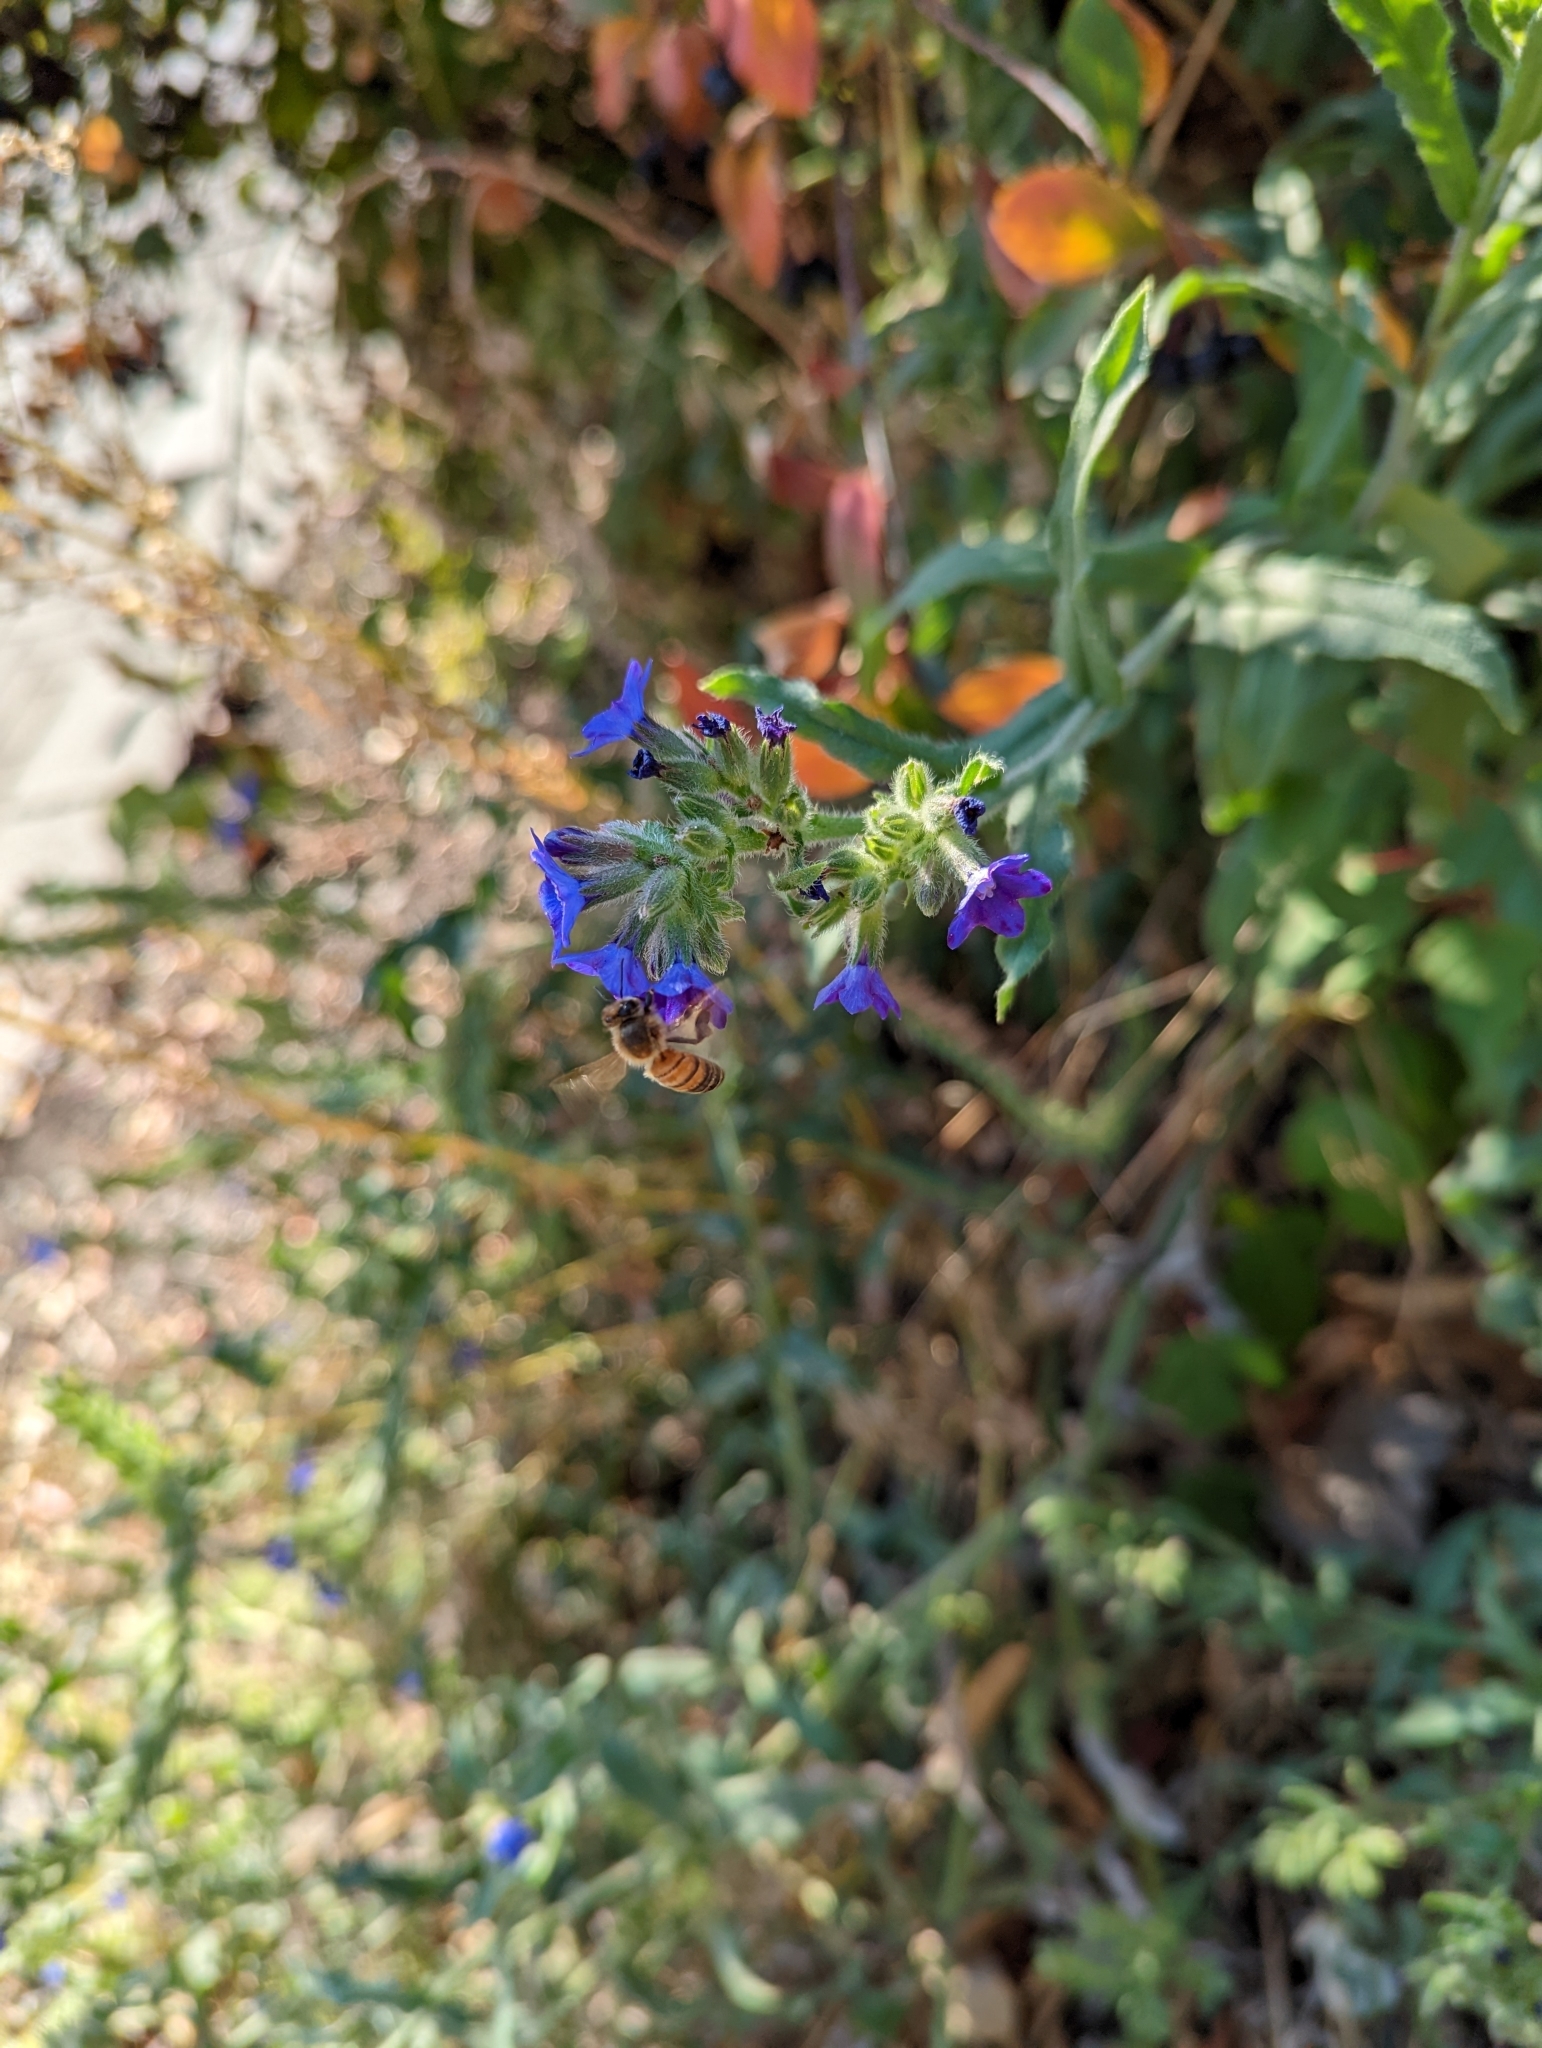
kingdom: Animalia
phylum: Arthropoda
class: Insecta
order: Hymenoptera
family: Apidae
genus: Apis
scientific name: Apis mellifera
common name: Honey bee
